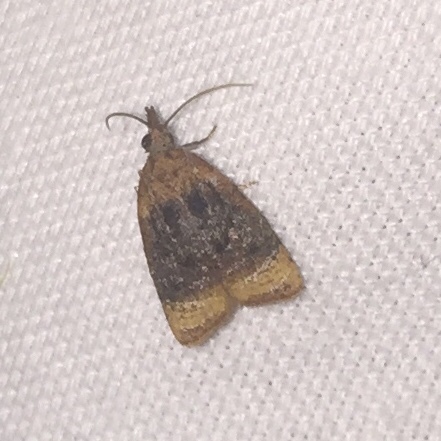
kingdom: Animalia
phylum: Arthropoda
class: Insecta
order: Lepidoptera
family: Tortricidae
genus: Platynota
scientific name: Platynota flavedana
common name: Black-shaded platynota moth
